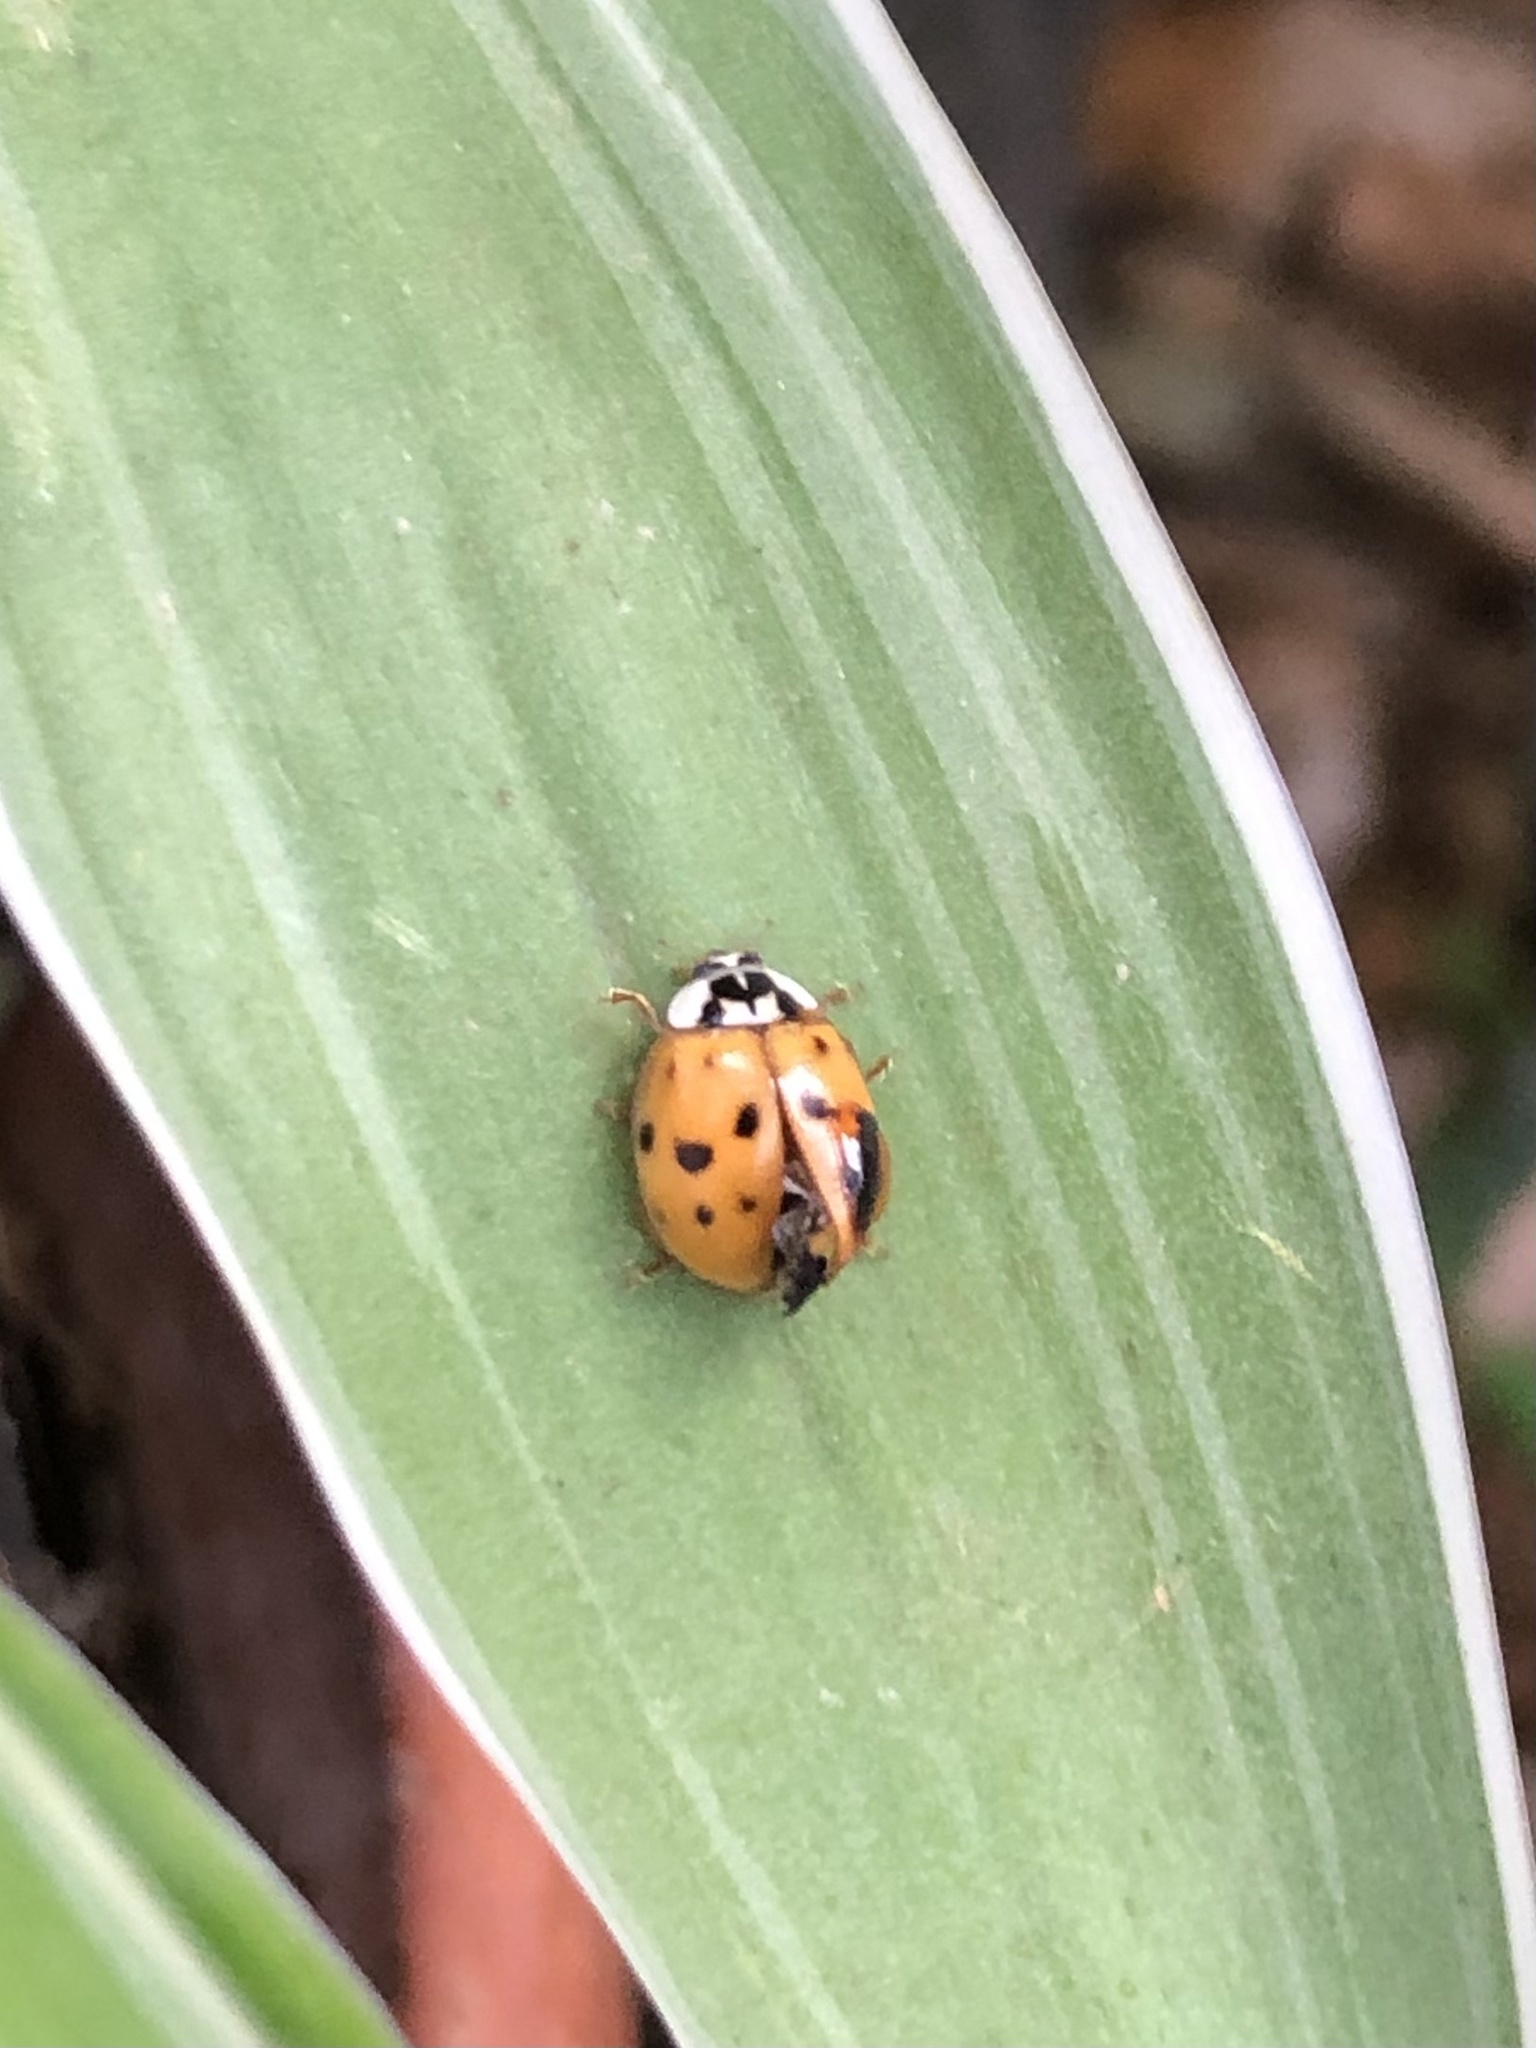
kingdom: Animalia
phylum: Arthropoda
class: Insecta
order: Coleoptera
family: Coccinellidae
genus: Harmonia
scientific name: Harmonia axyridis
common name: Harlequin ladybird
